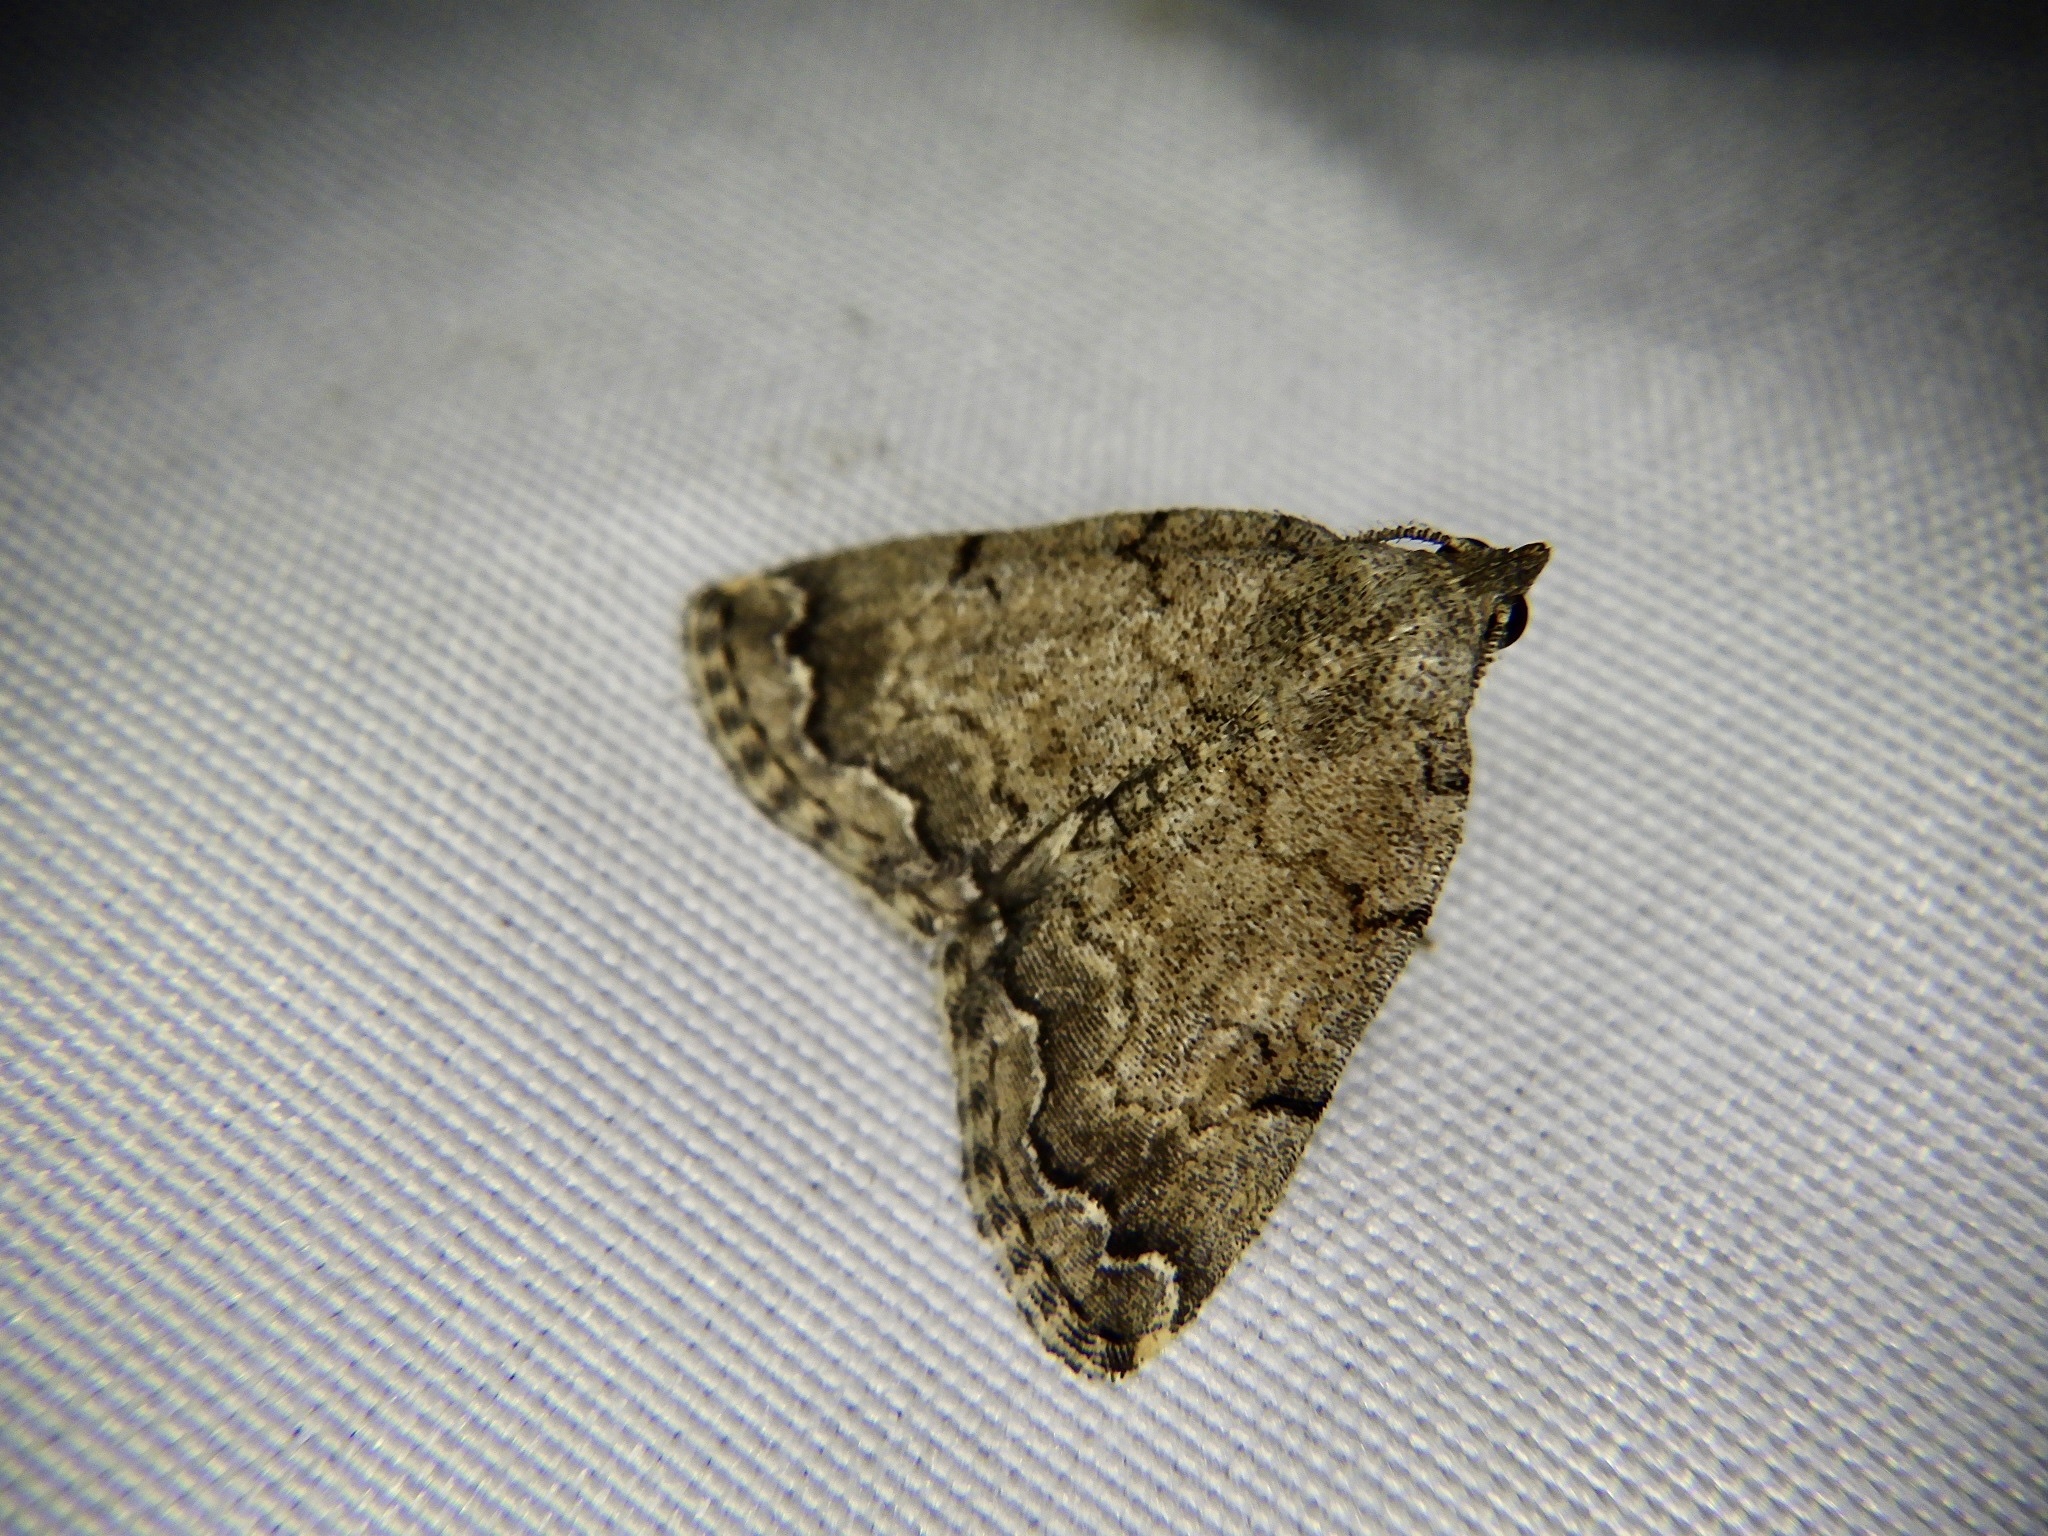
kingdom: Animalia
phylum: Arthropoda
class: Insecta
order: Lepidoptera
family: Erebidae
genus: Sinarella
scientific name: Sinarella
